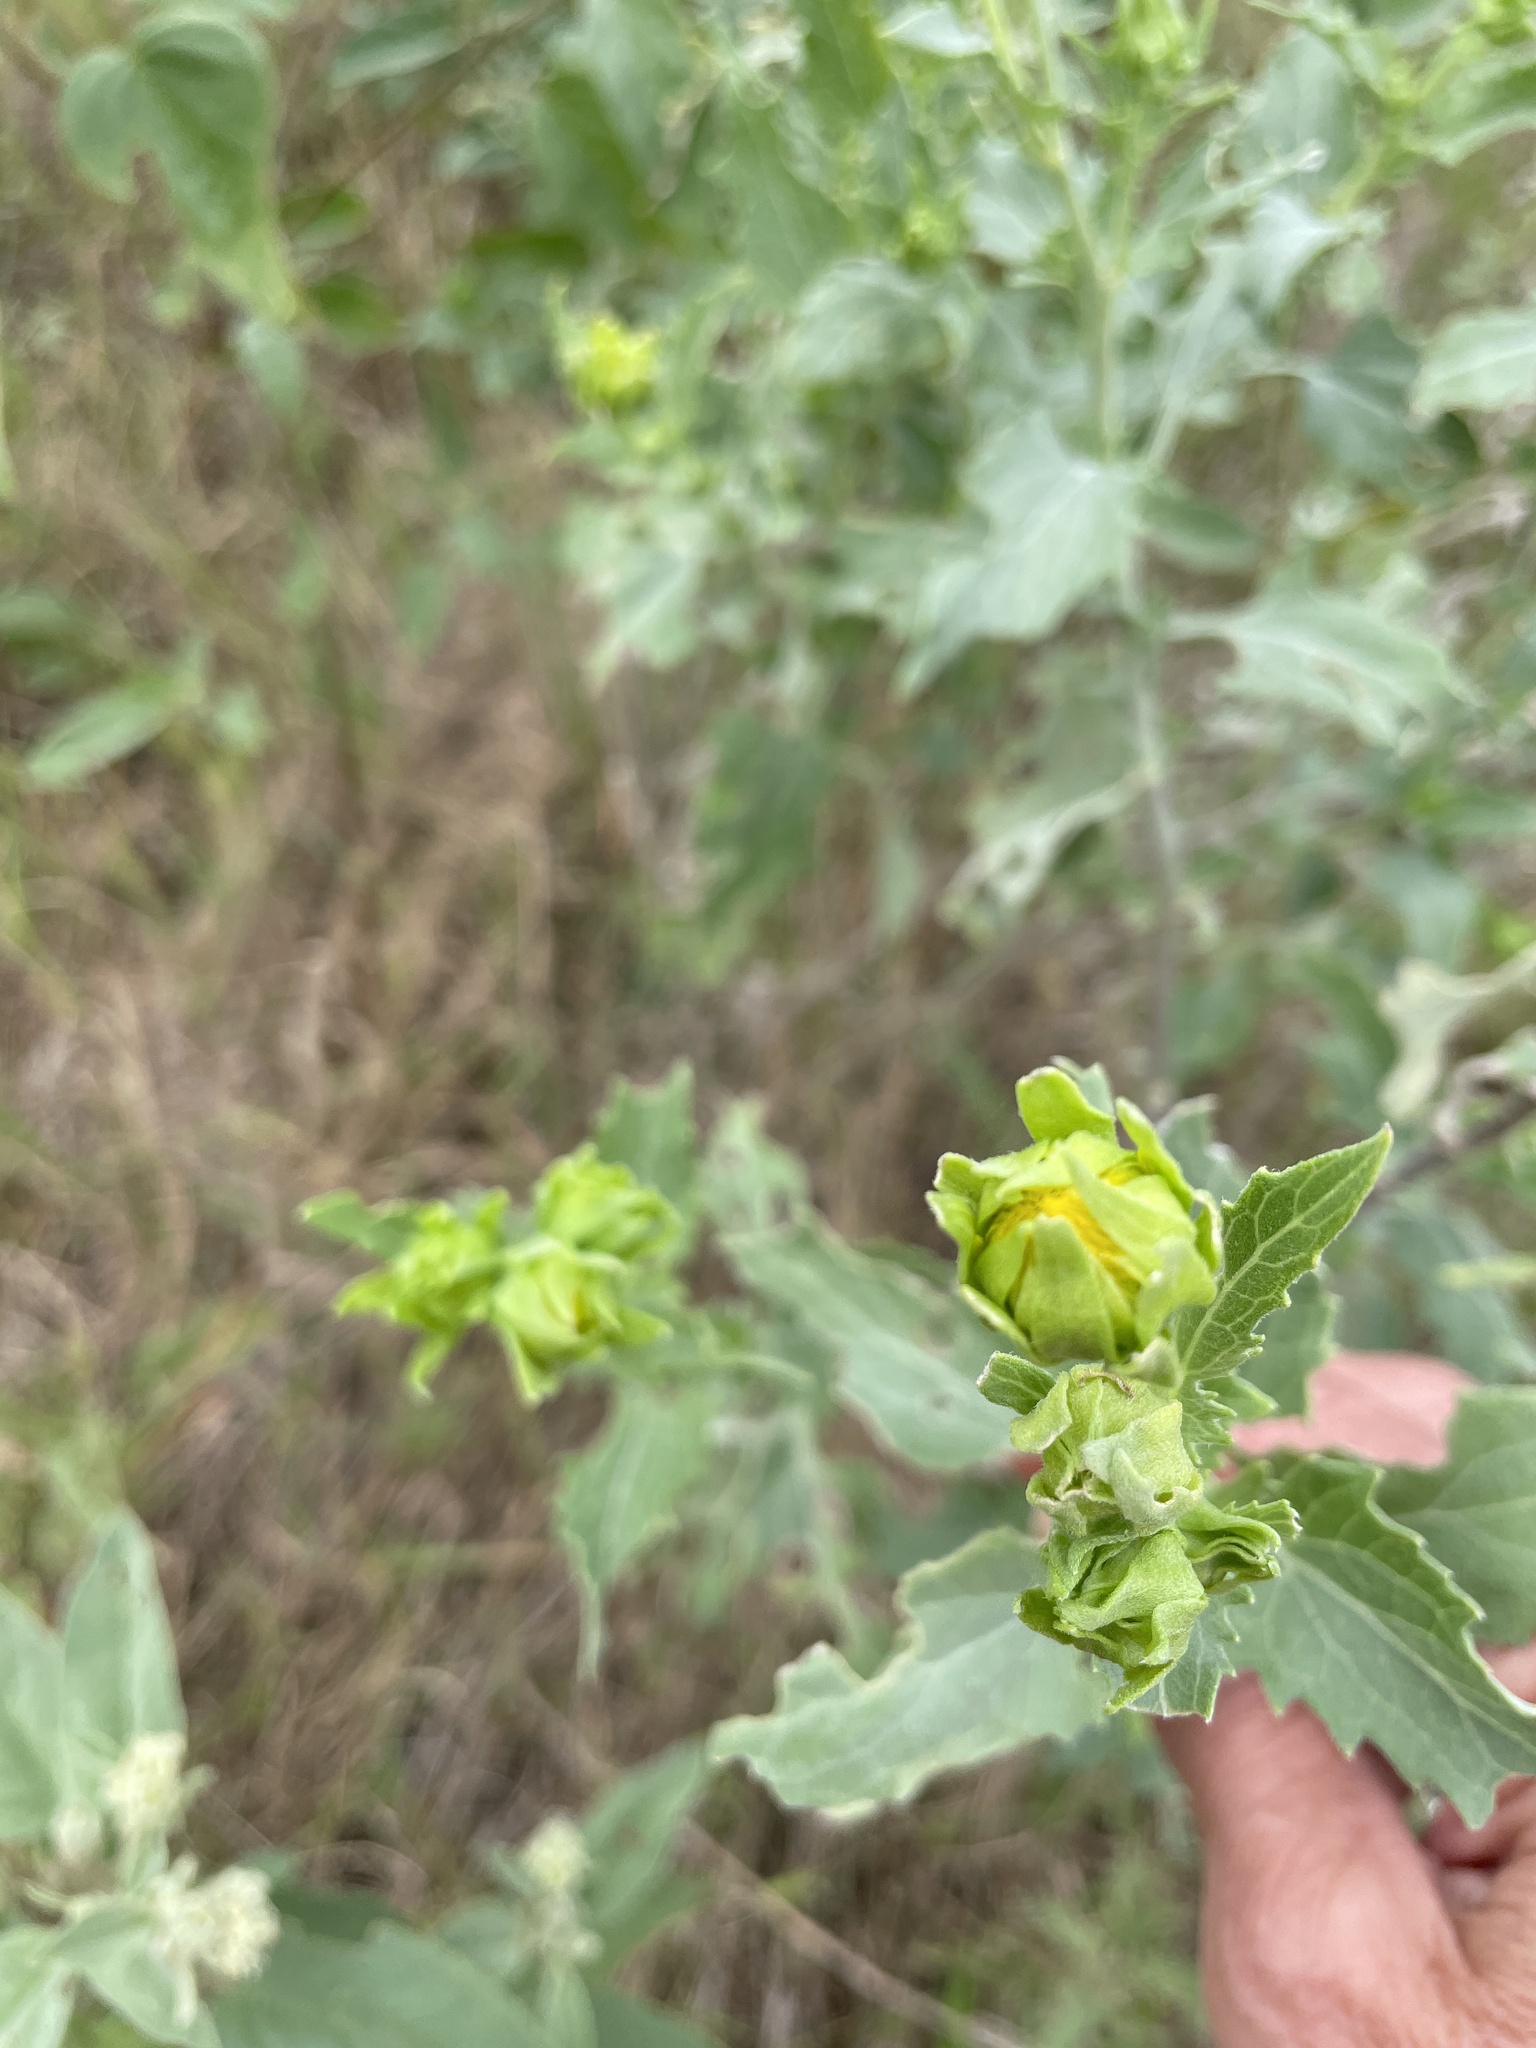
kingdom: Plantae
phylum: Tracheophyta
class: Magnoliopsida
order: Asterales
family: Asteraceae
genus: Verbesina
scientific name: Verbesina encelioides
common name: Golden crownbeard
